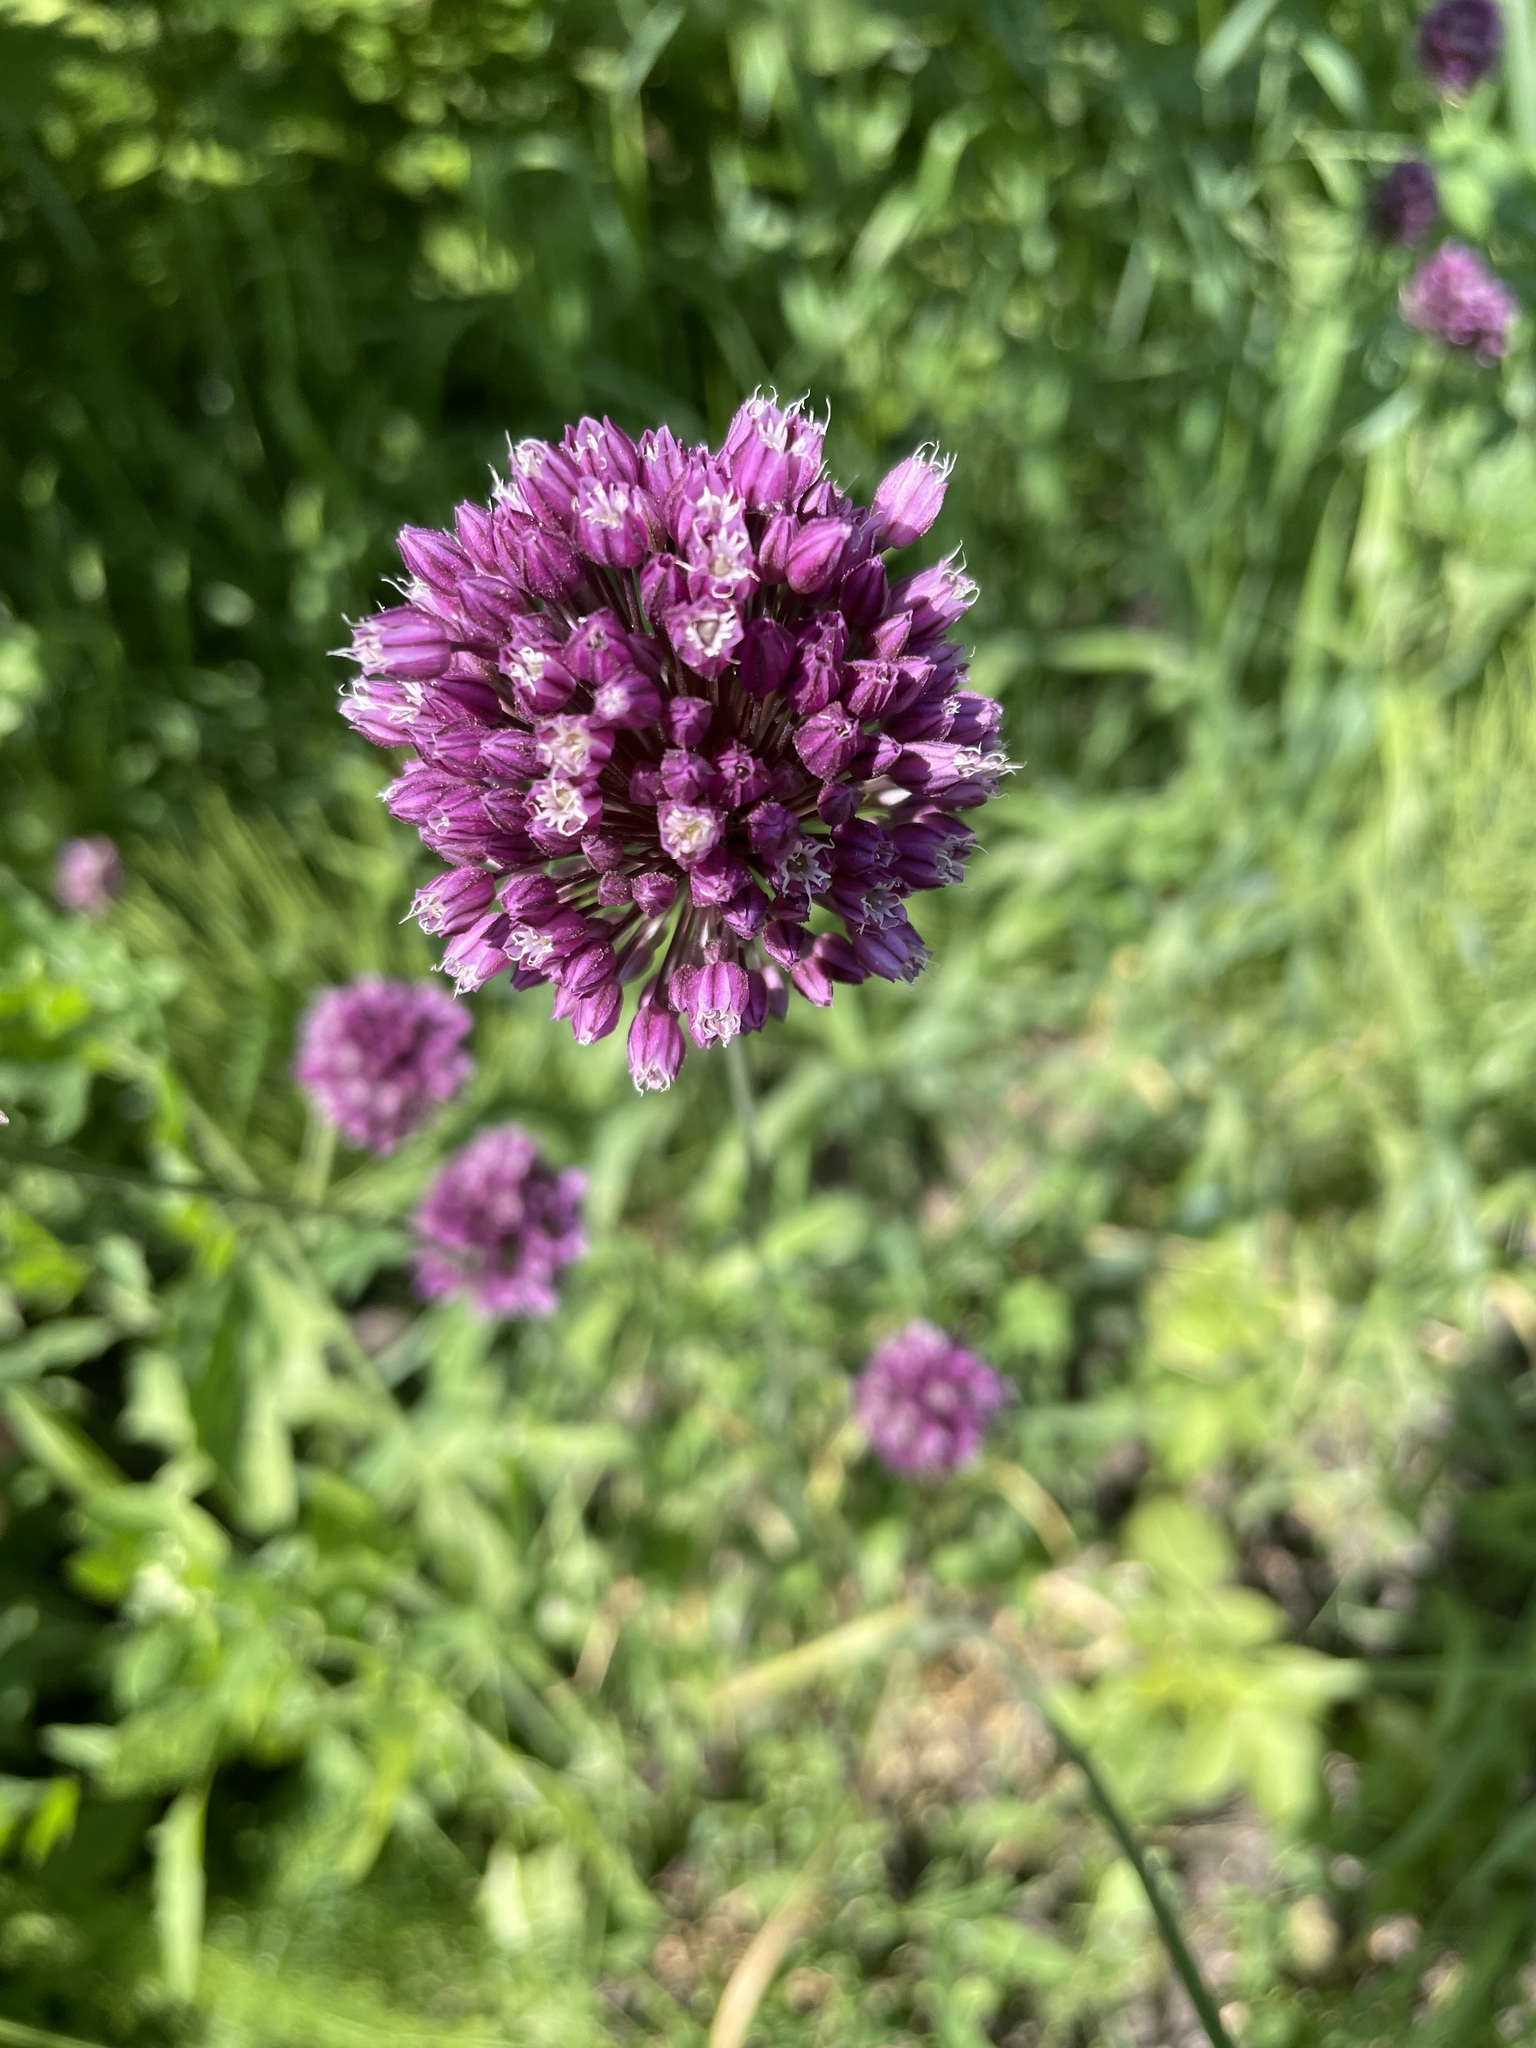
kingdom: Plantae
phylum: Tracheophyta
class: Liliopsida
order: Asparagales
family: Amaryllidaceae
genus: Allium
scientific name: Allium rotundum
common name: Sand leek
